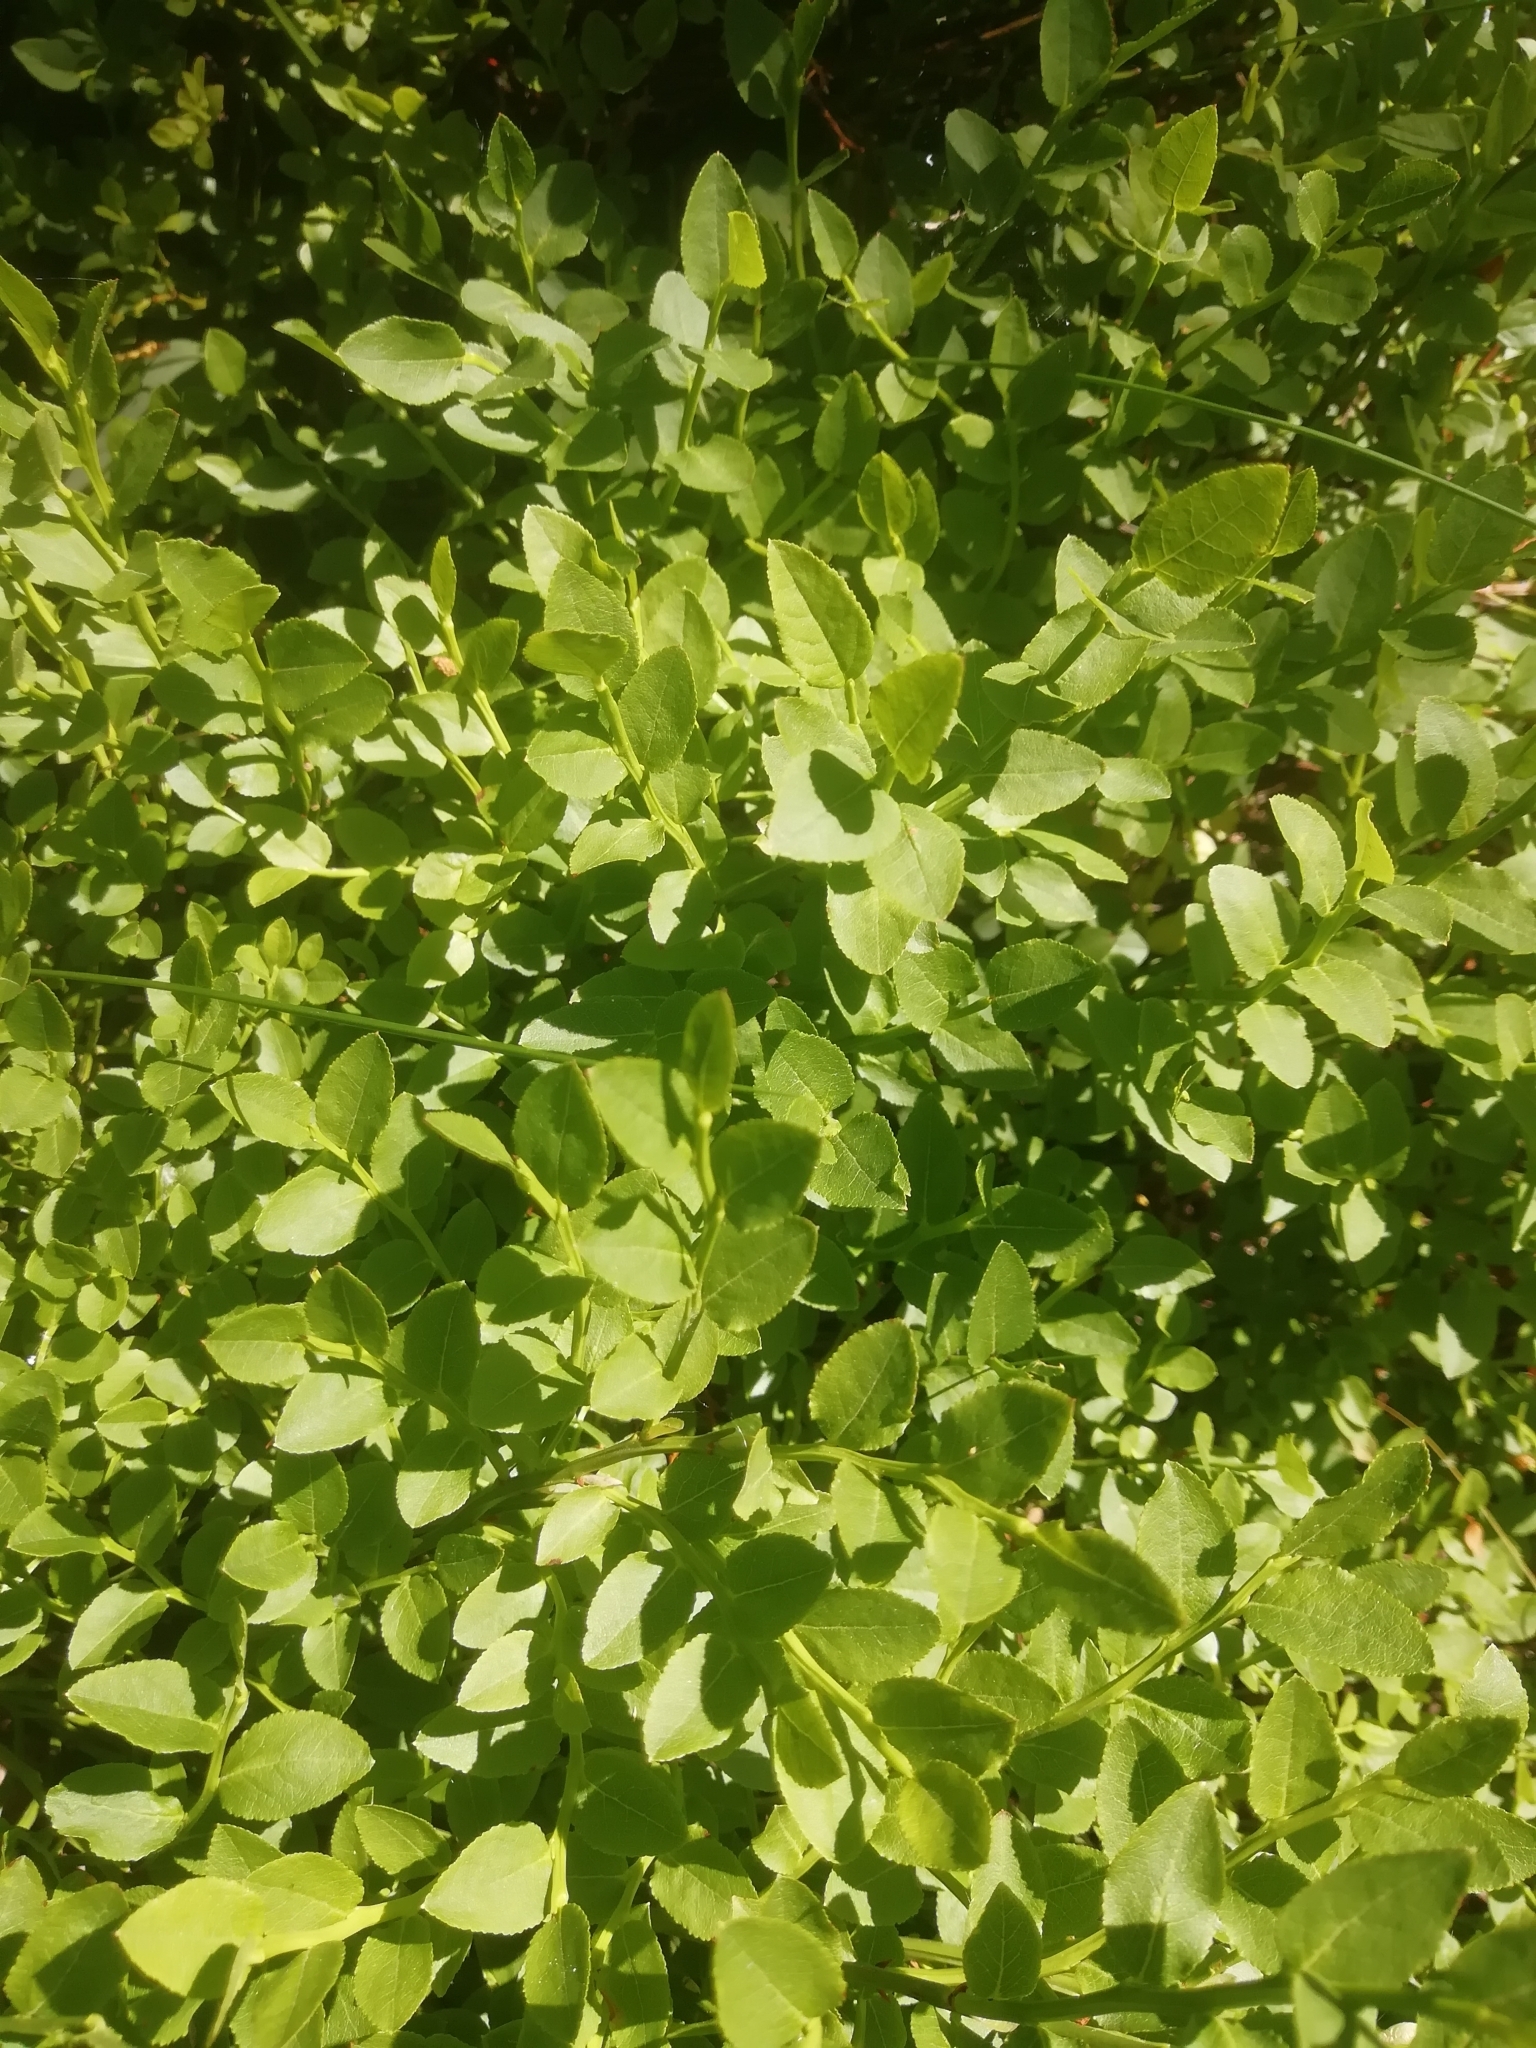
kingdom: Plantae
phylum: Tracheophyta
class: Magnoliopsida
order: Ericales
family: Ericaceae
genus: Vaccinium
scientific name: Vaccinium myrtillus
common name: Bilberry
